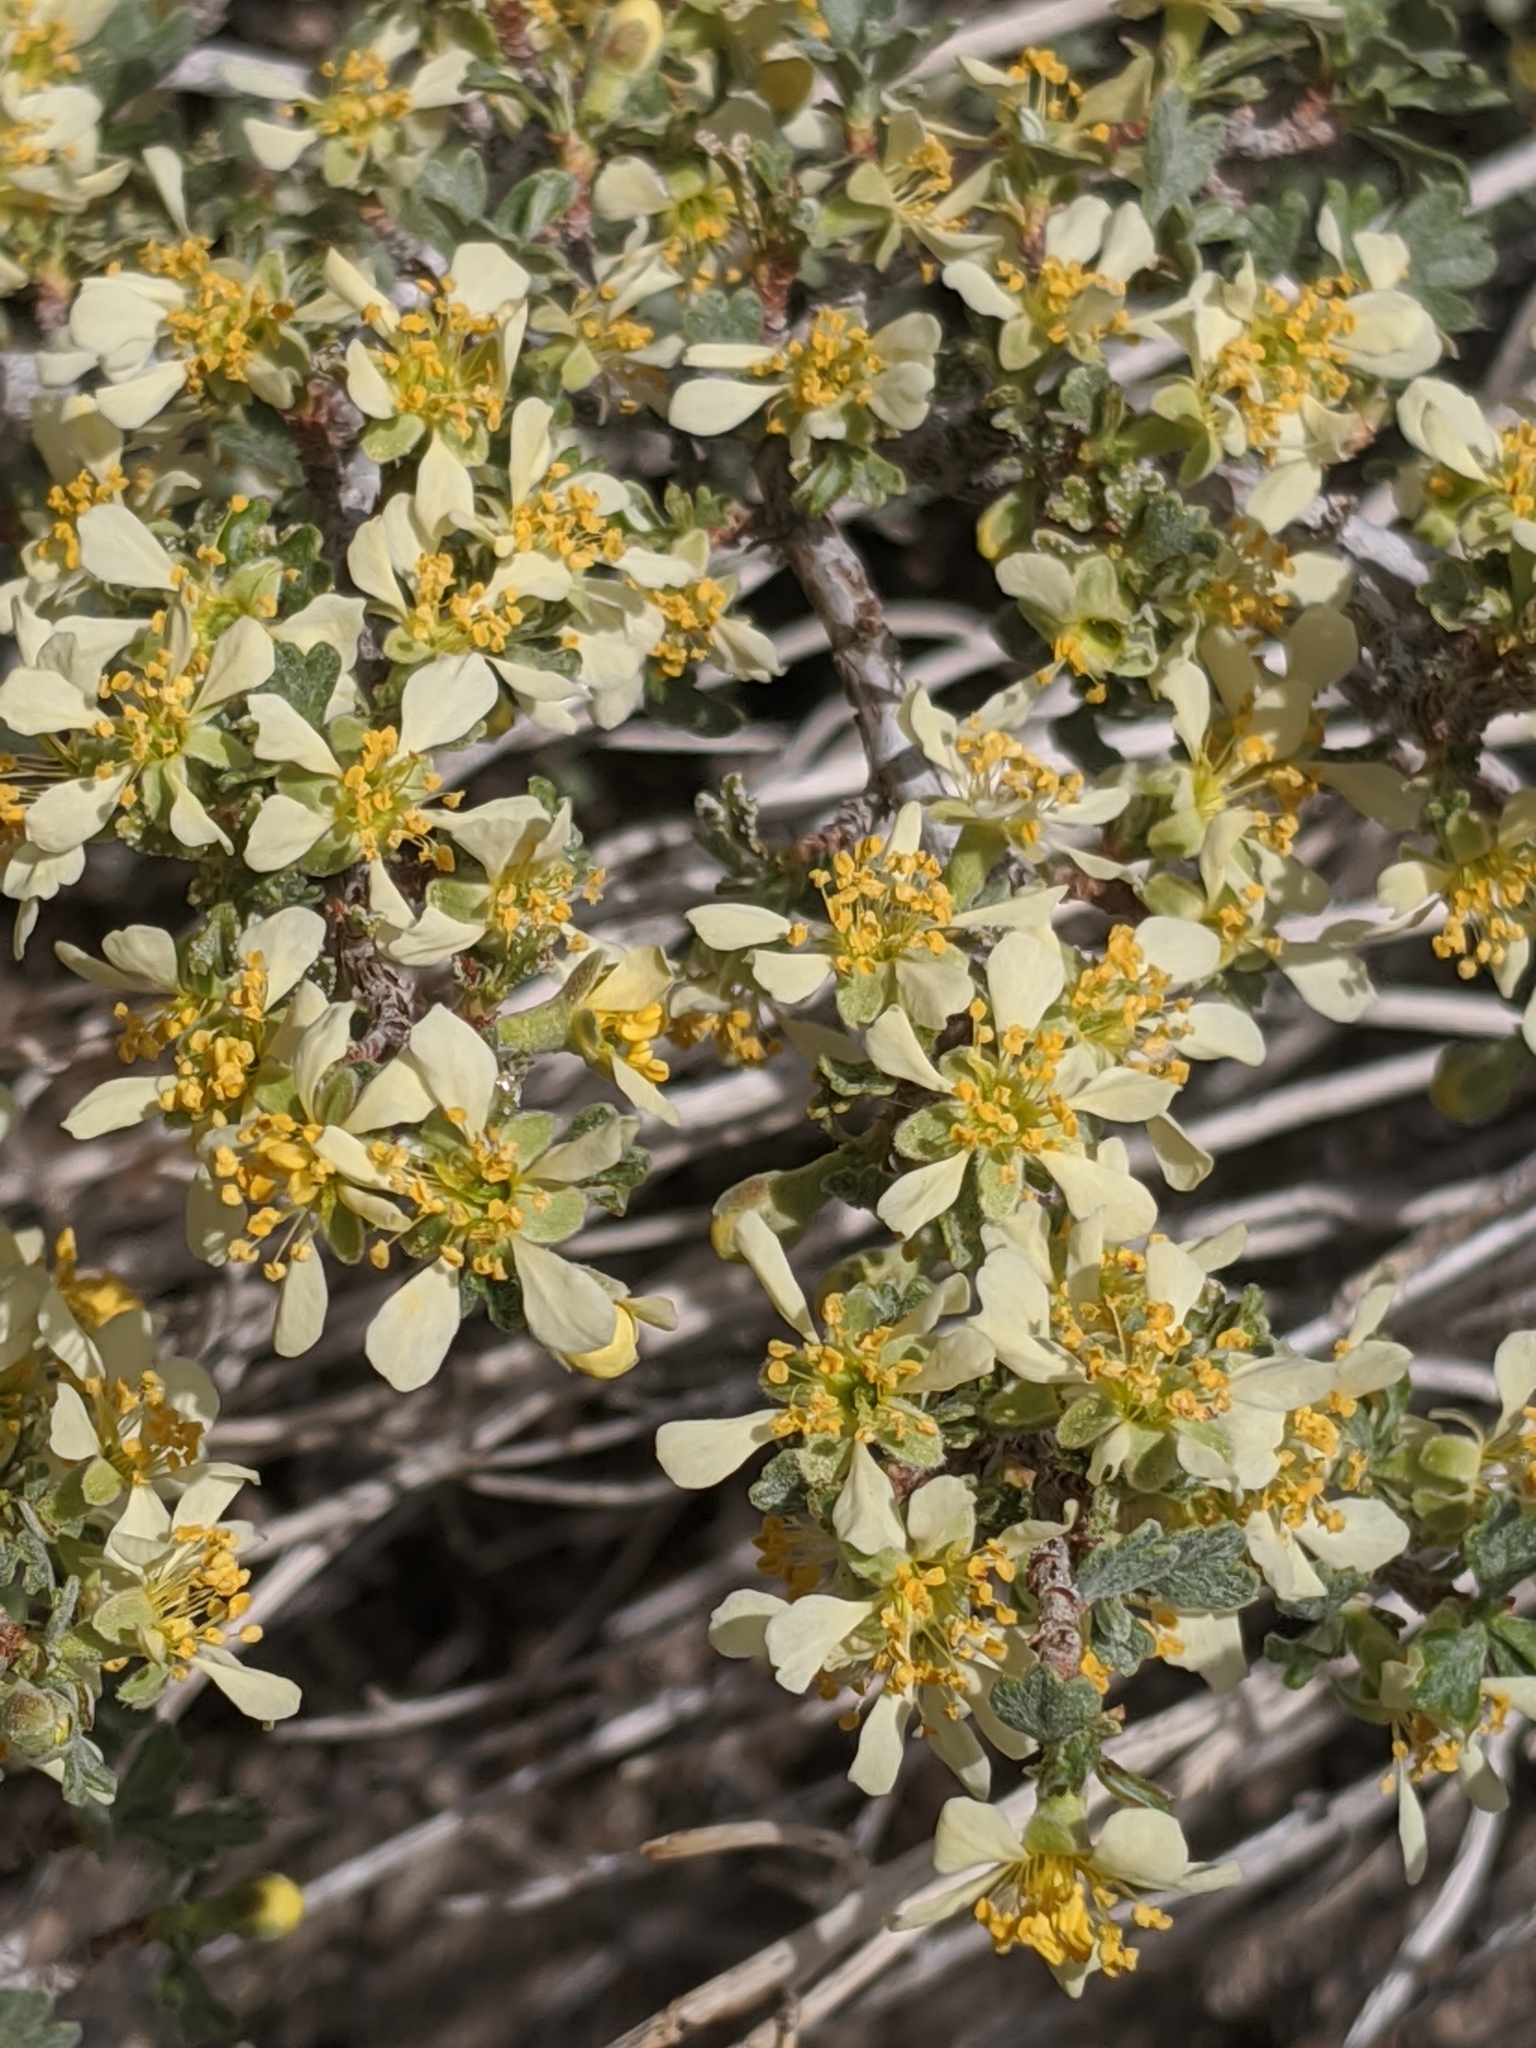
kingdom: Plantae
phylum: Tracheophyta
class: Magnoliopsida
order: Rosales
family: Rosaceae
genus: Purshia
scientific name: Purshia tridentata
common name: Antelope bitterbrush
